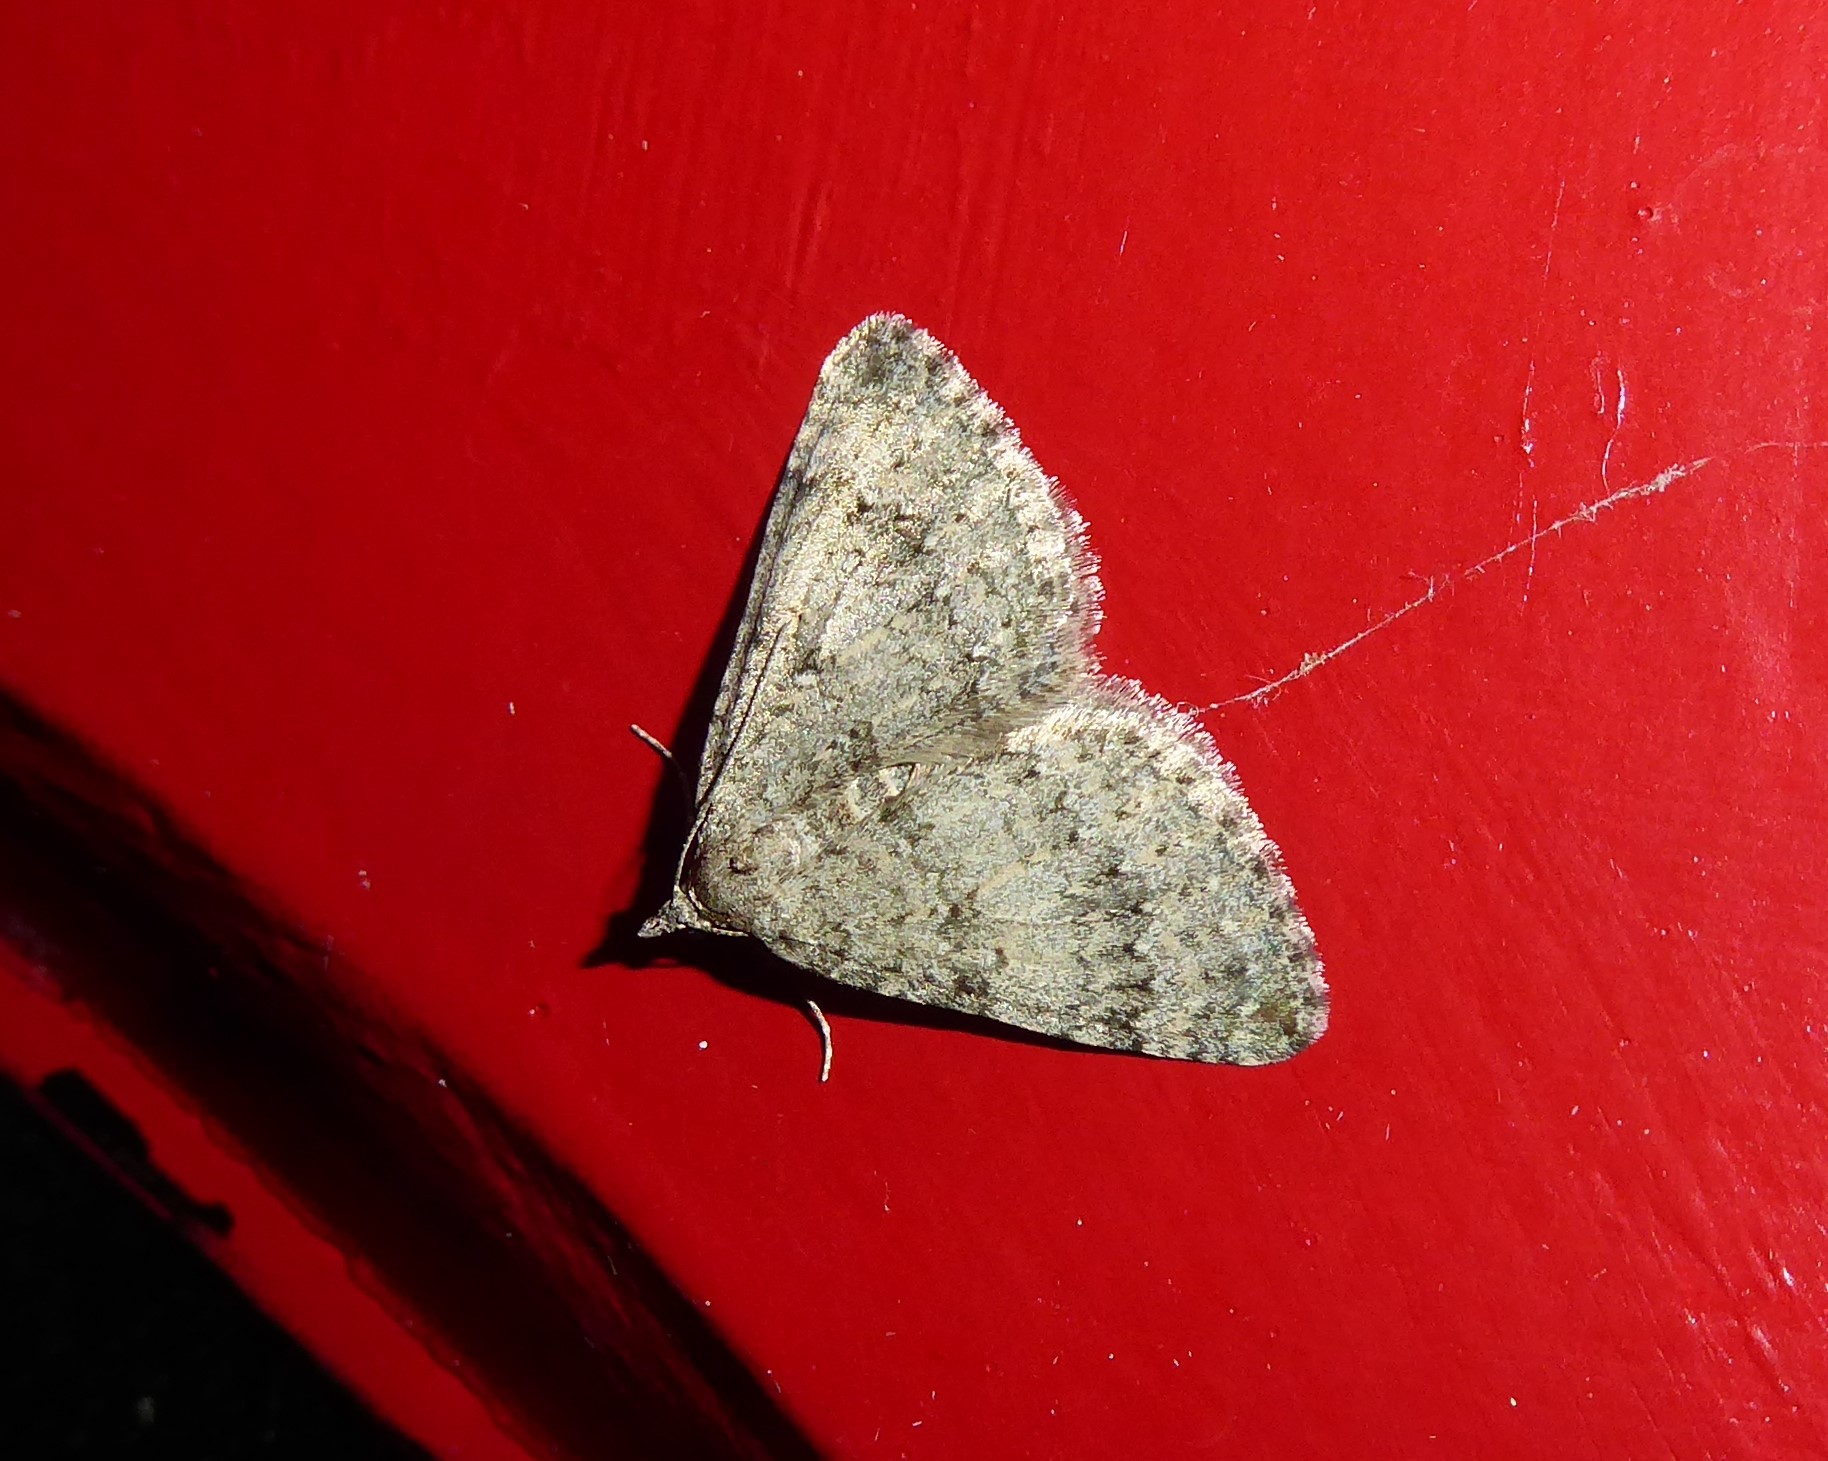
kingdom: Animalia
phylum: Arthropoda
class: Insecta
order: Lepidoptera
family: Geometridae
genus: Helastia
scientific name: Helastia corcularia
